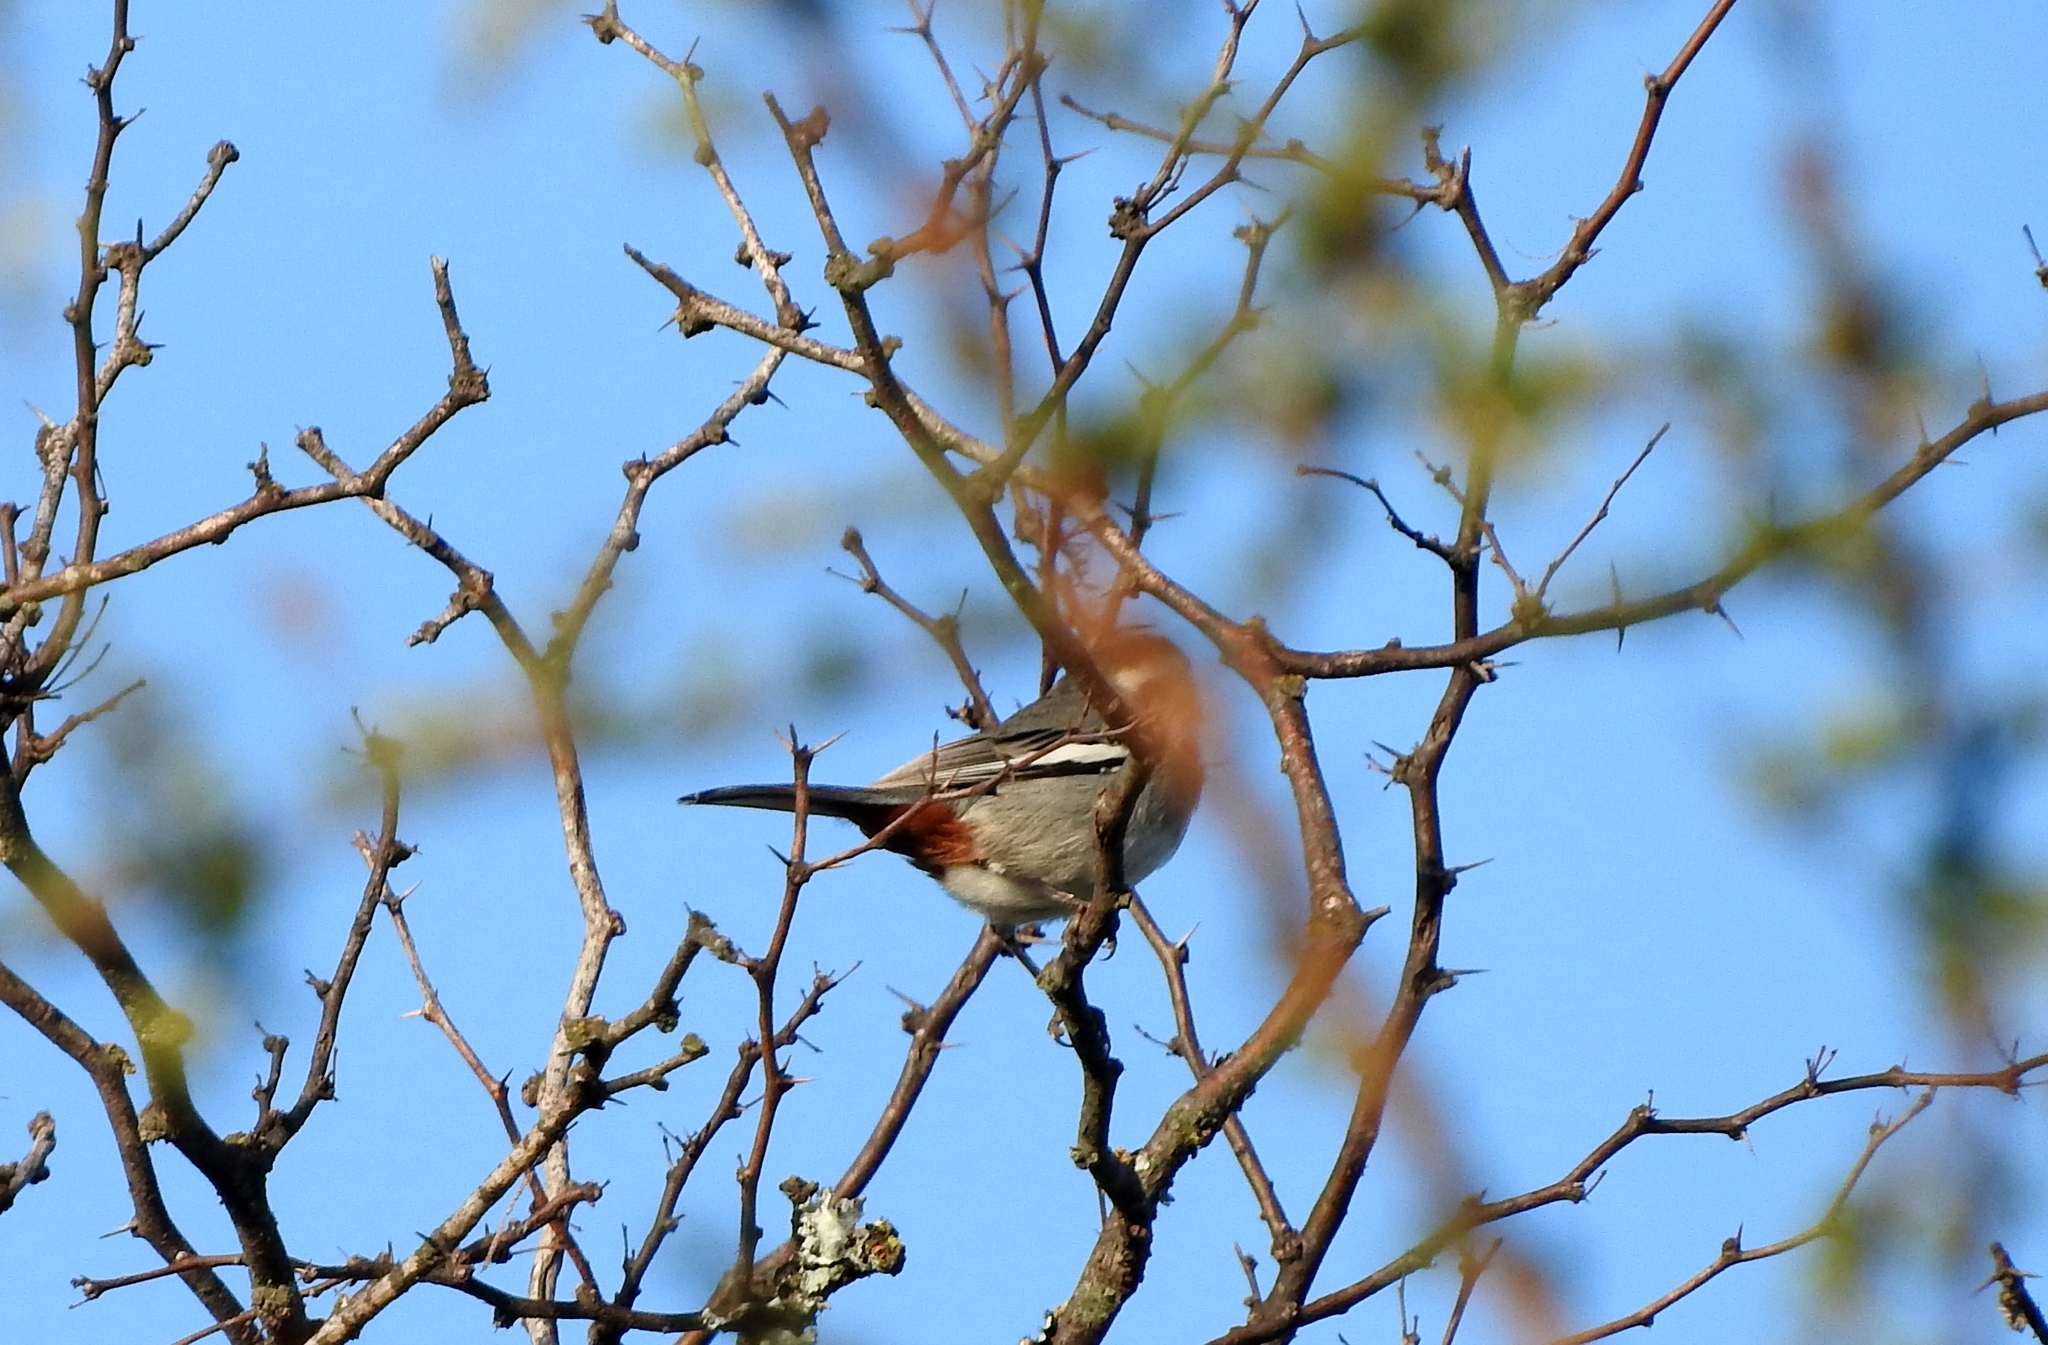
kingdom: Animalia
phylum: Chordata
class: Aves
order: Passeriformes
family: Thraupidae
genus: Microspingus
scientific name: Microspingus torquatus
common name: Ringed warbling-finch
